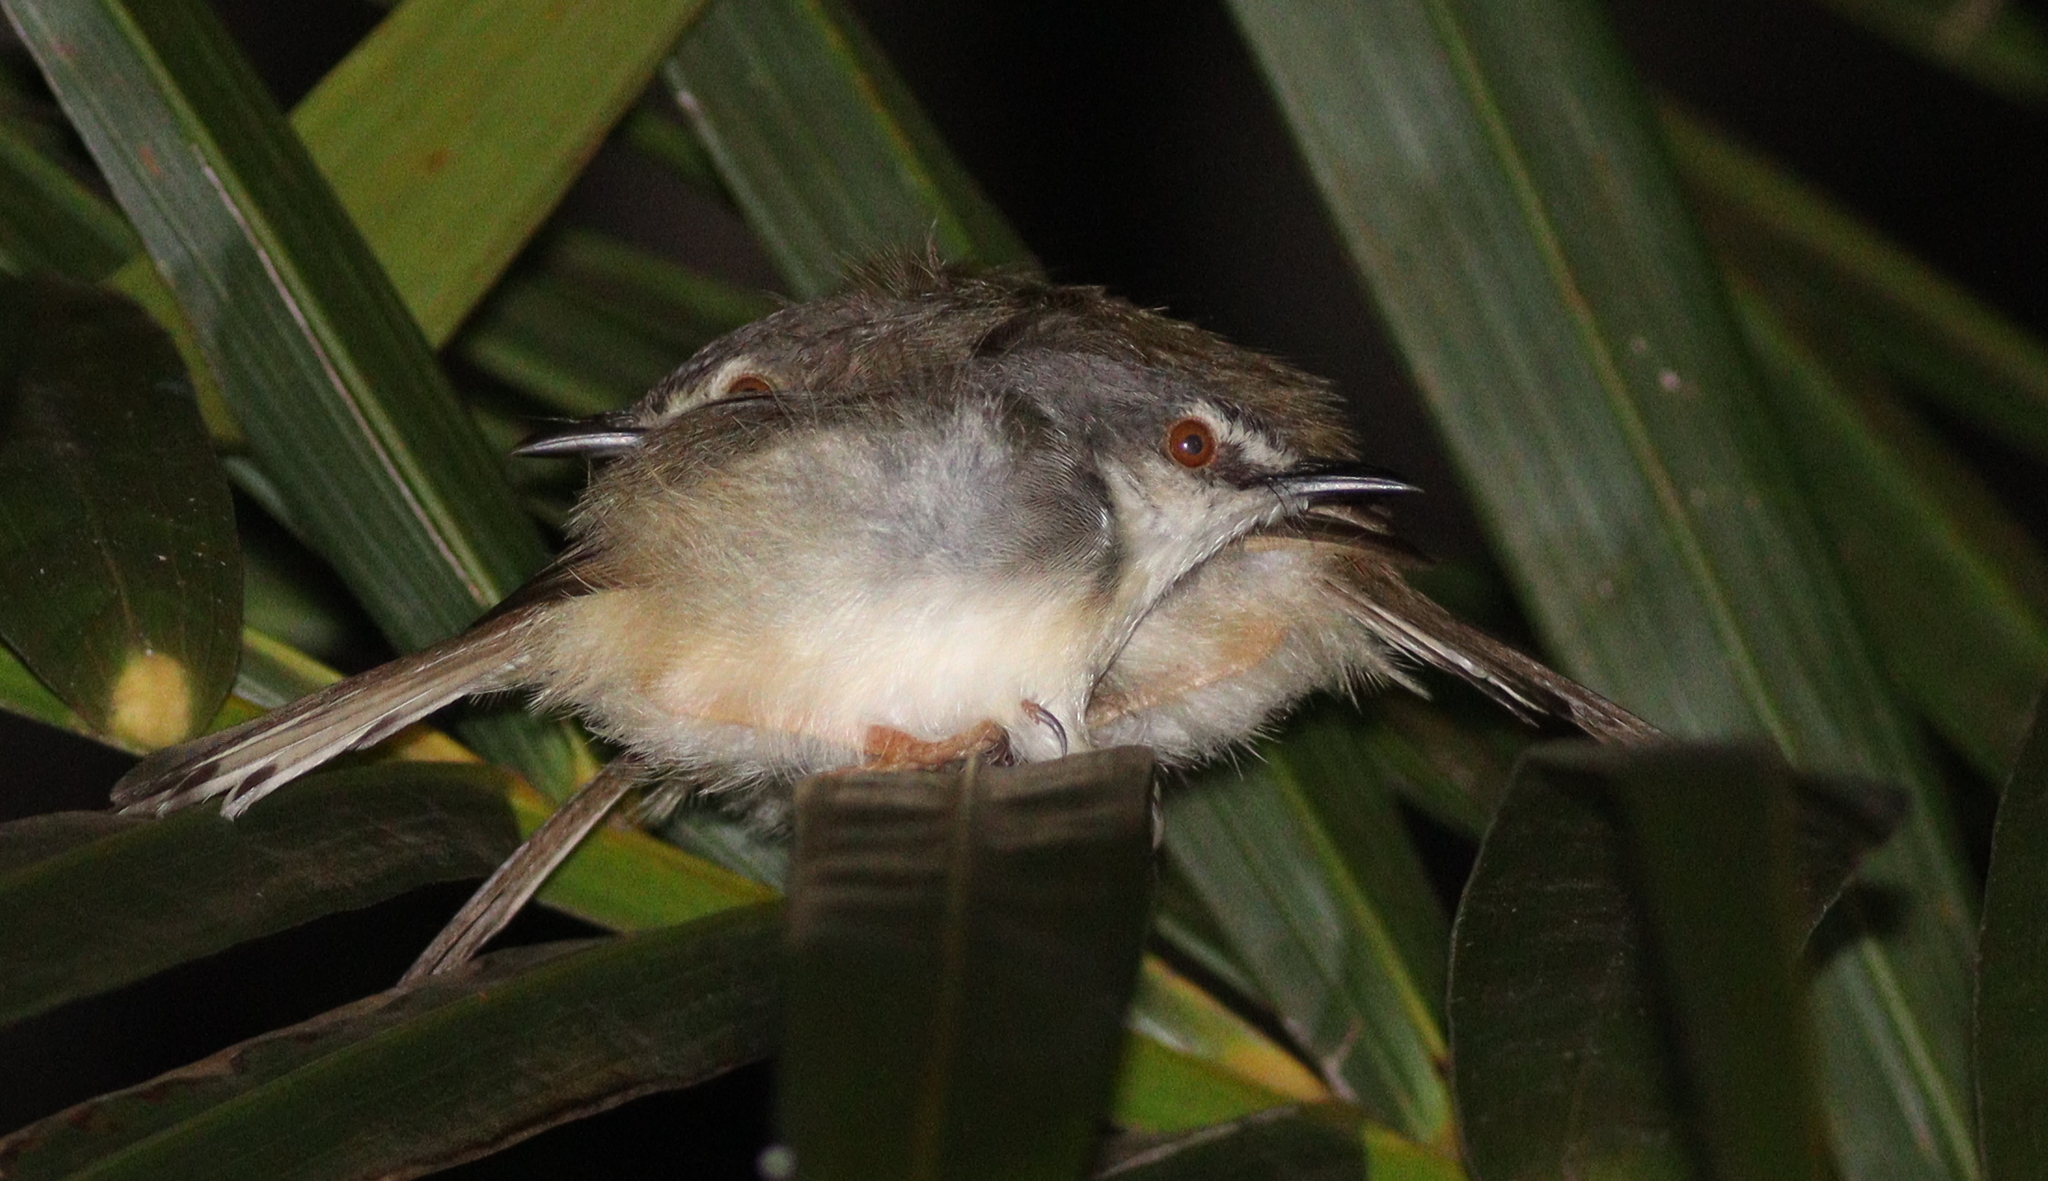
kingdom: Animalia
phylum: Chordata
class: Aves
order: Passeriformes
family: Cisticolidae
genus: Prinia
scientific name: Prinia subflava
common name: Tawny-flanked prinia
